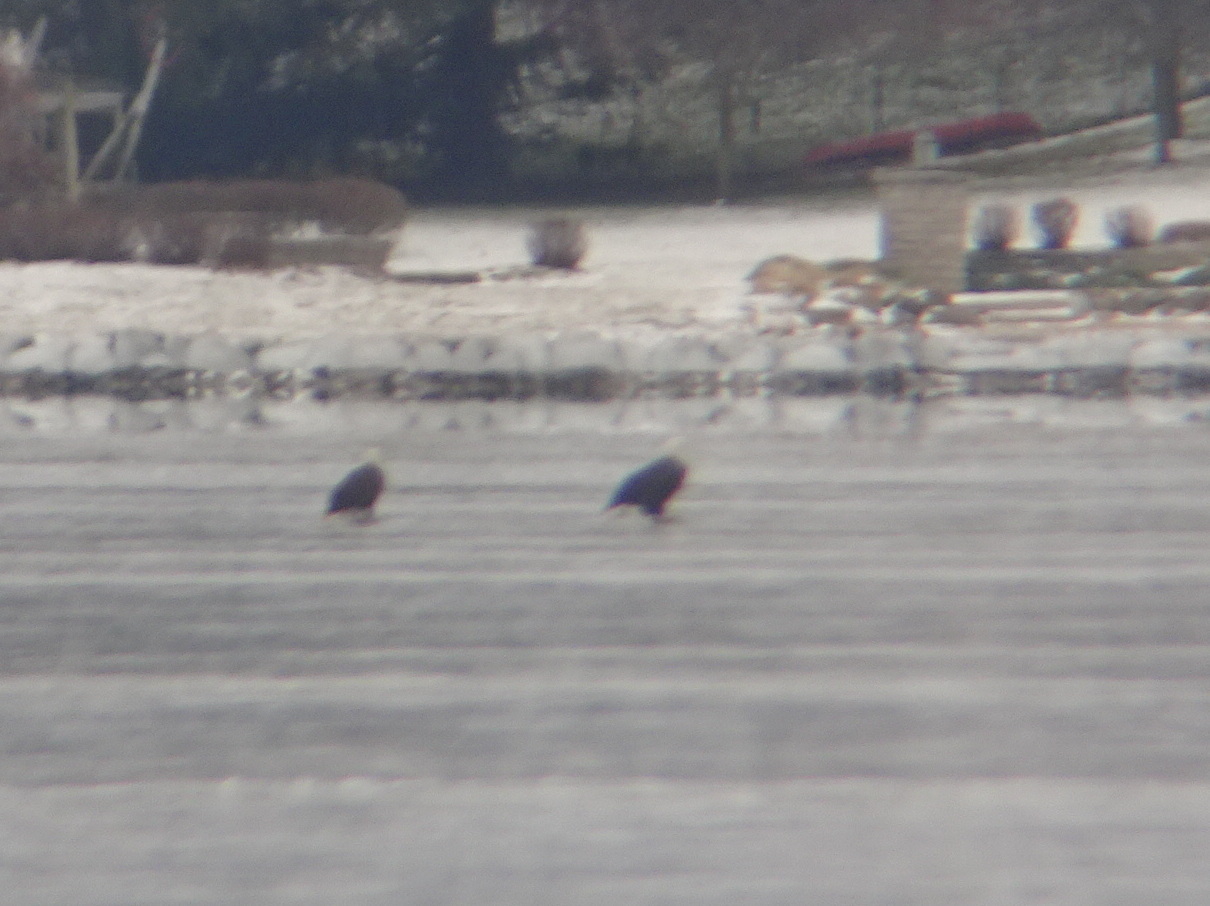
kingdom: Animalia
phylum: Chordata
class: Aves
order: Accipitriformes
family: Accipitridae
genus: Haliaeetus
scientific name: Haliaeetus leucocephalus
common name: Bald eagle
